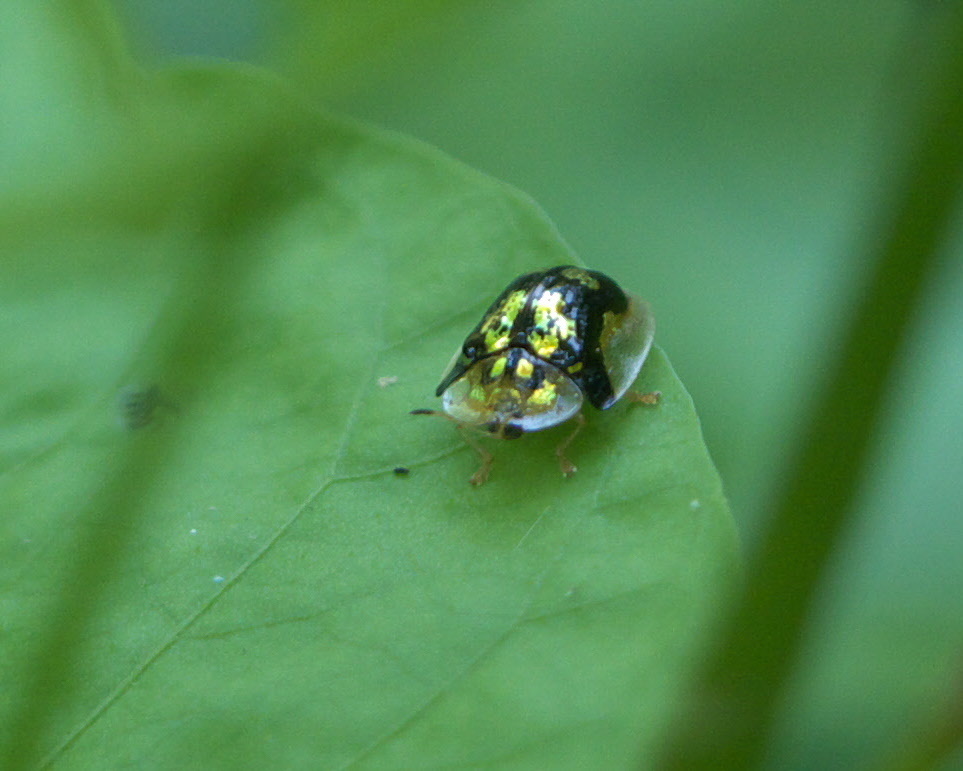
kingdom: Animalia
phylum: Arthropoda
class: Insecta
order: Coleoptera
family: Chrysomelidae
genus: Deloyala
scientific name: Deloyala guttata
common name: Mottled tortoise beetle
